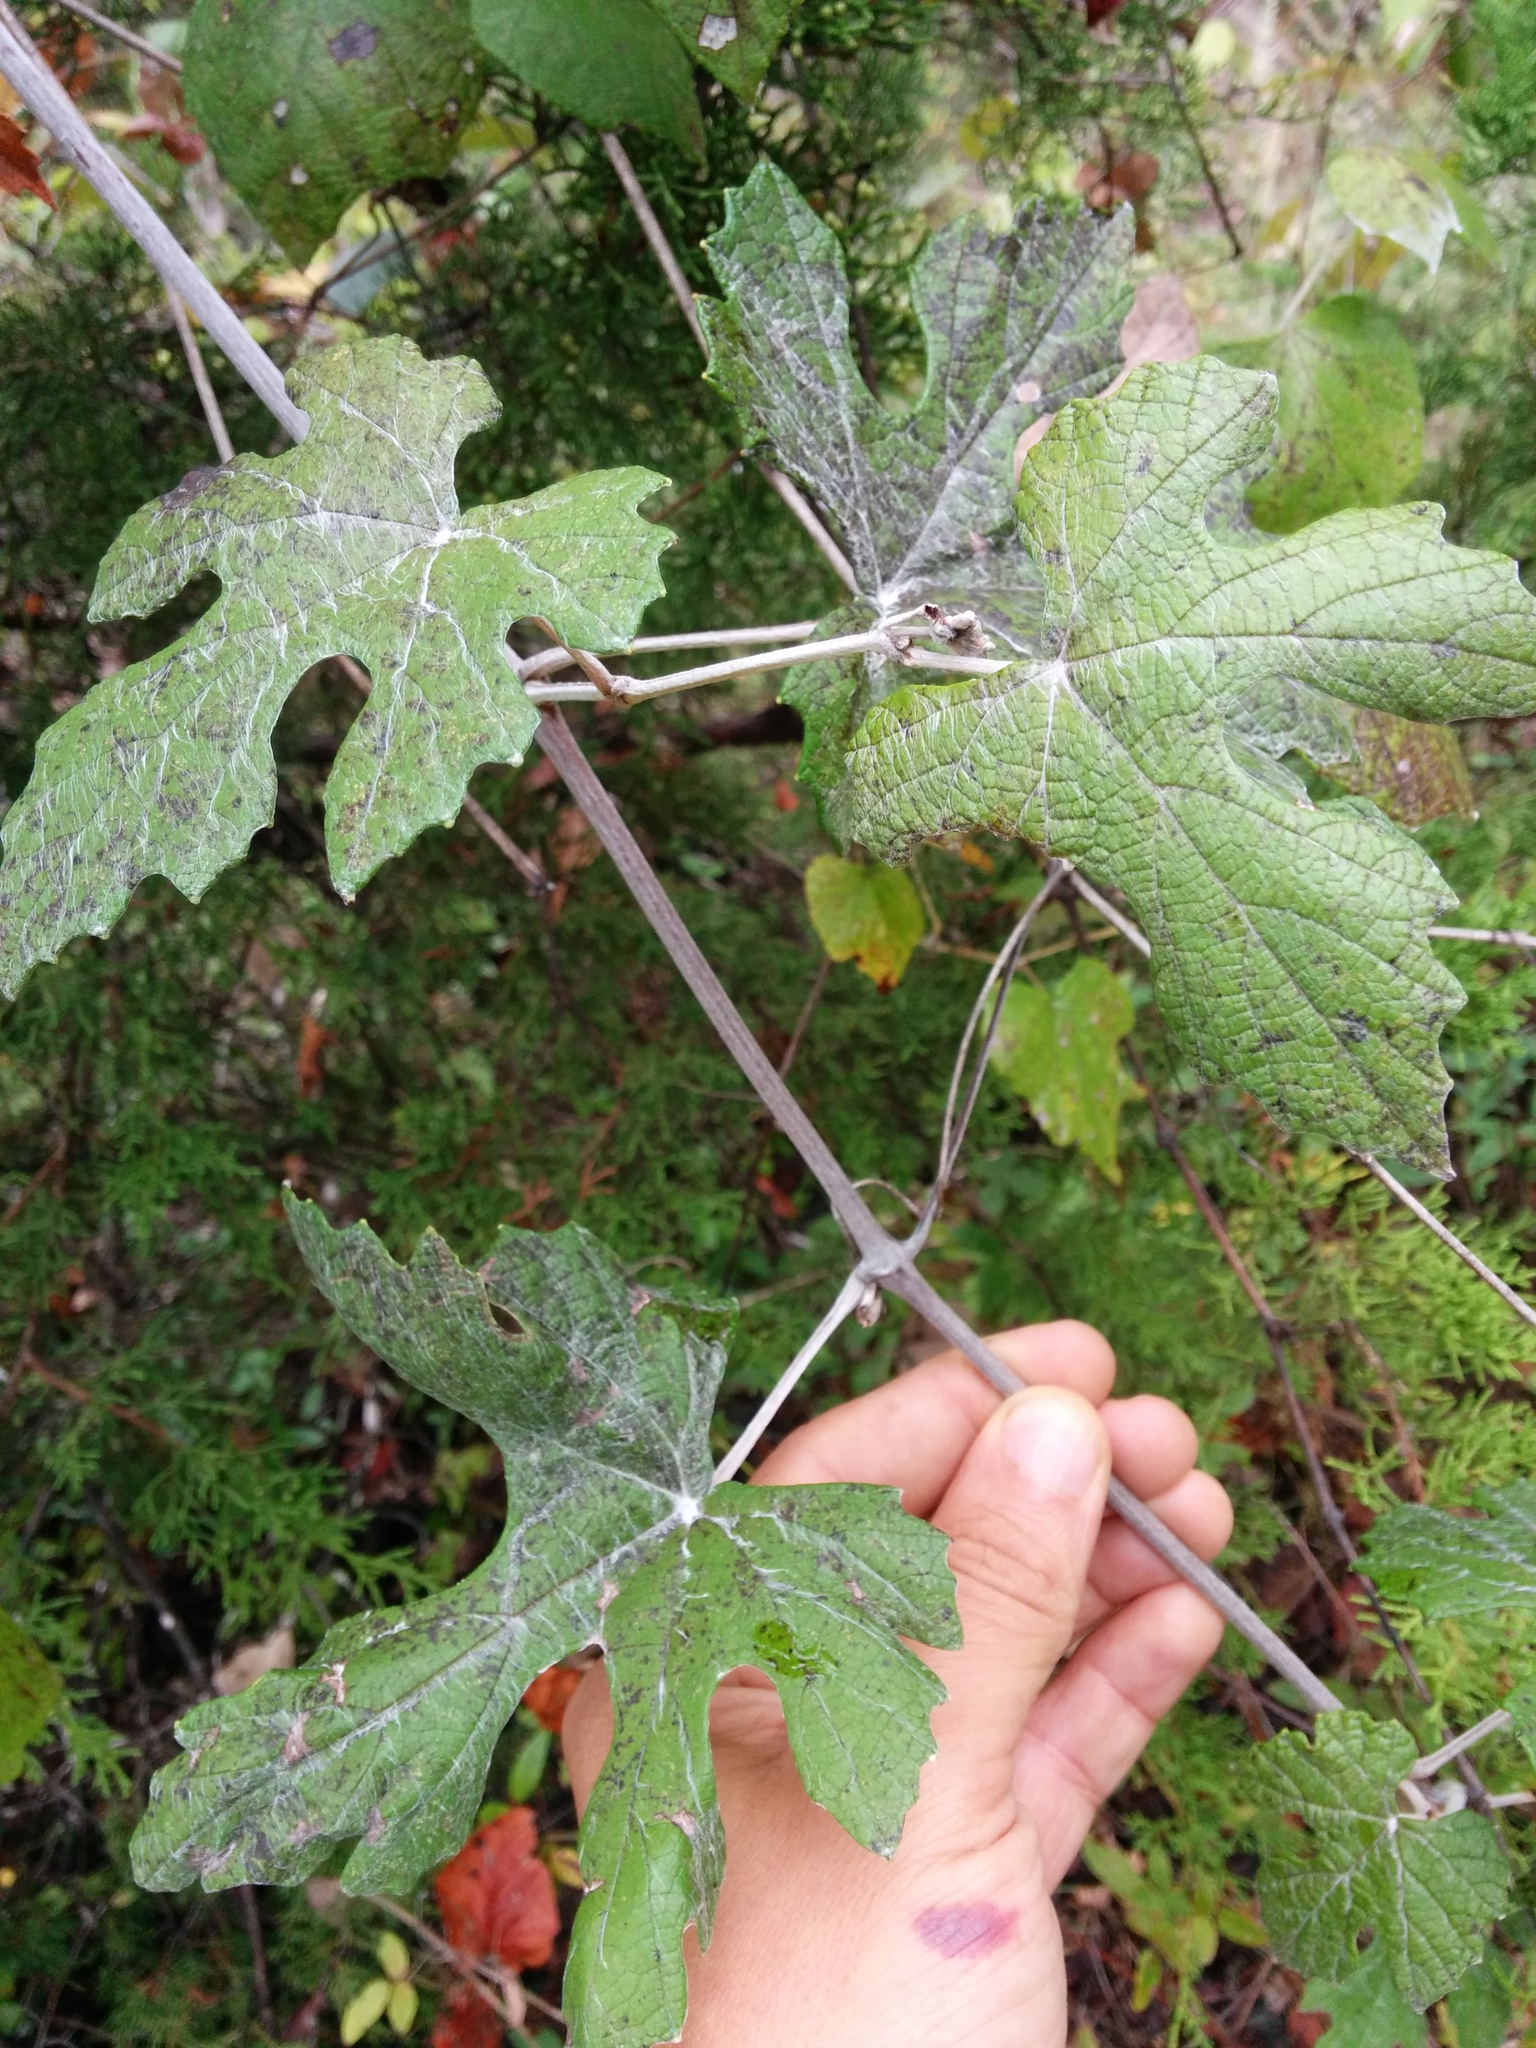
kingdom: Plantae
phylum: Tracheophyta
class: Magnoliopsida
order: Vitales
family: Vitaceae
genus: Vitis
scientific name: Vitis mustangensis
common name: Mustang grape
